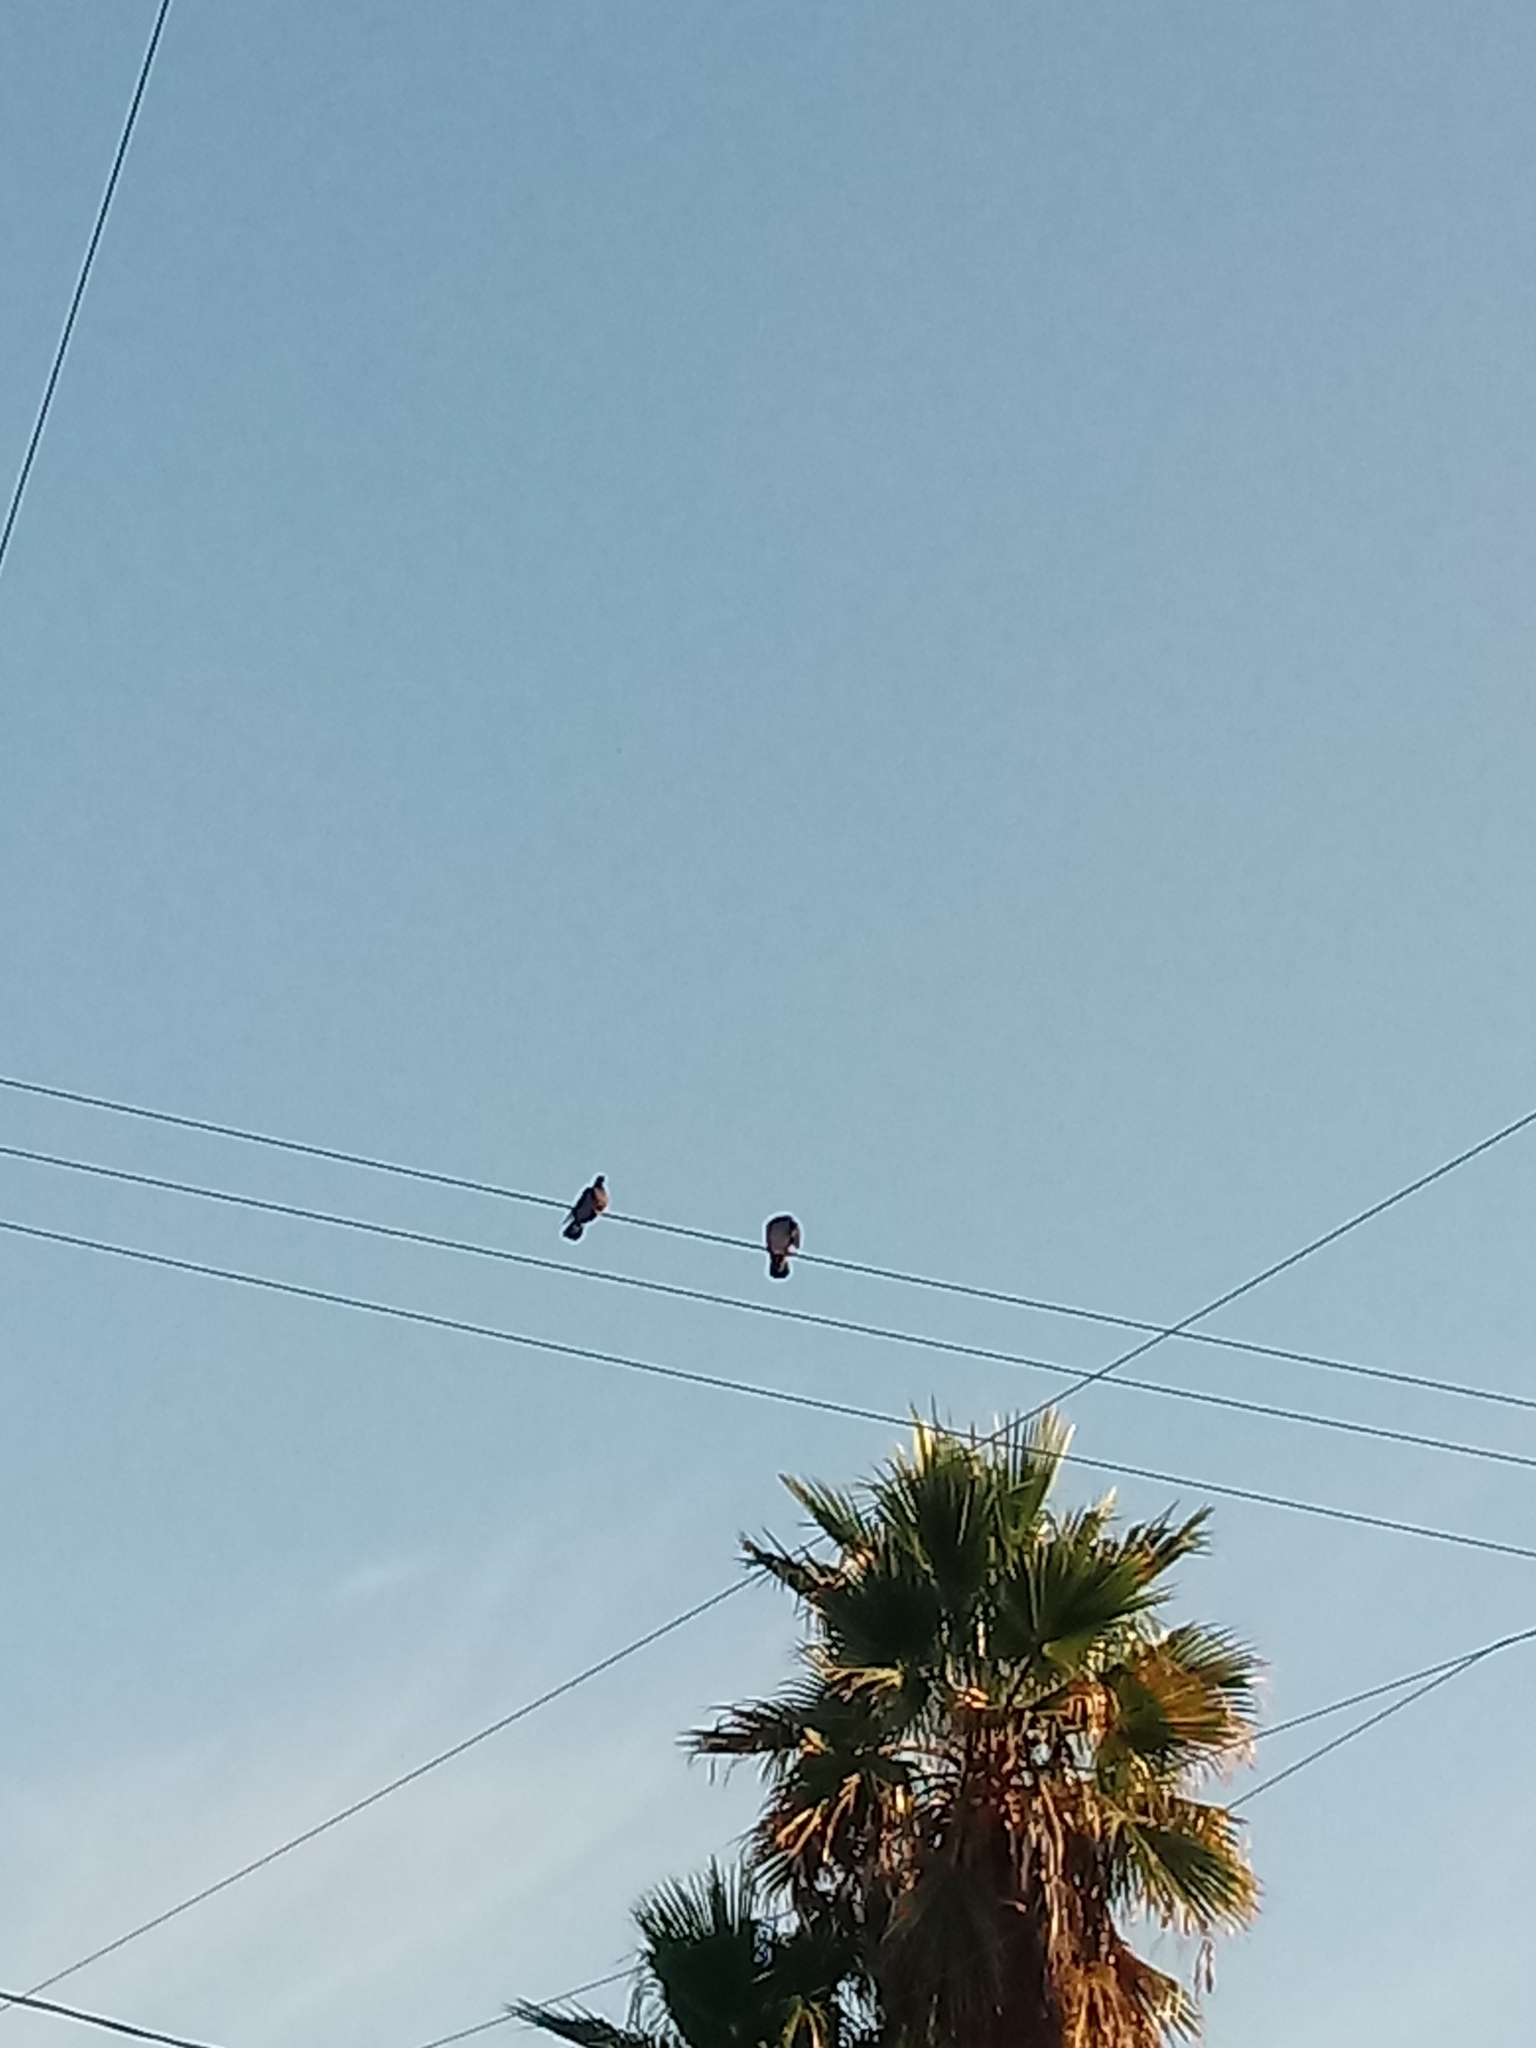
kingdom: Animalia
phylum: Chordata
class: Aves
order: Columbiformes
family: Columbidae
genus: Columba
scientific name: Columba livia
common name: Rock pigeon
